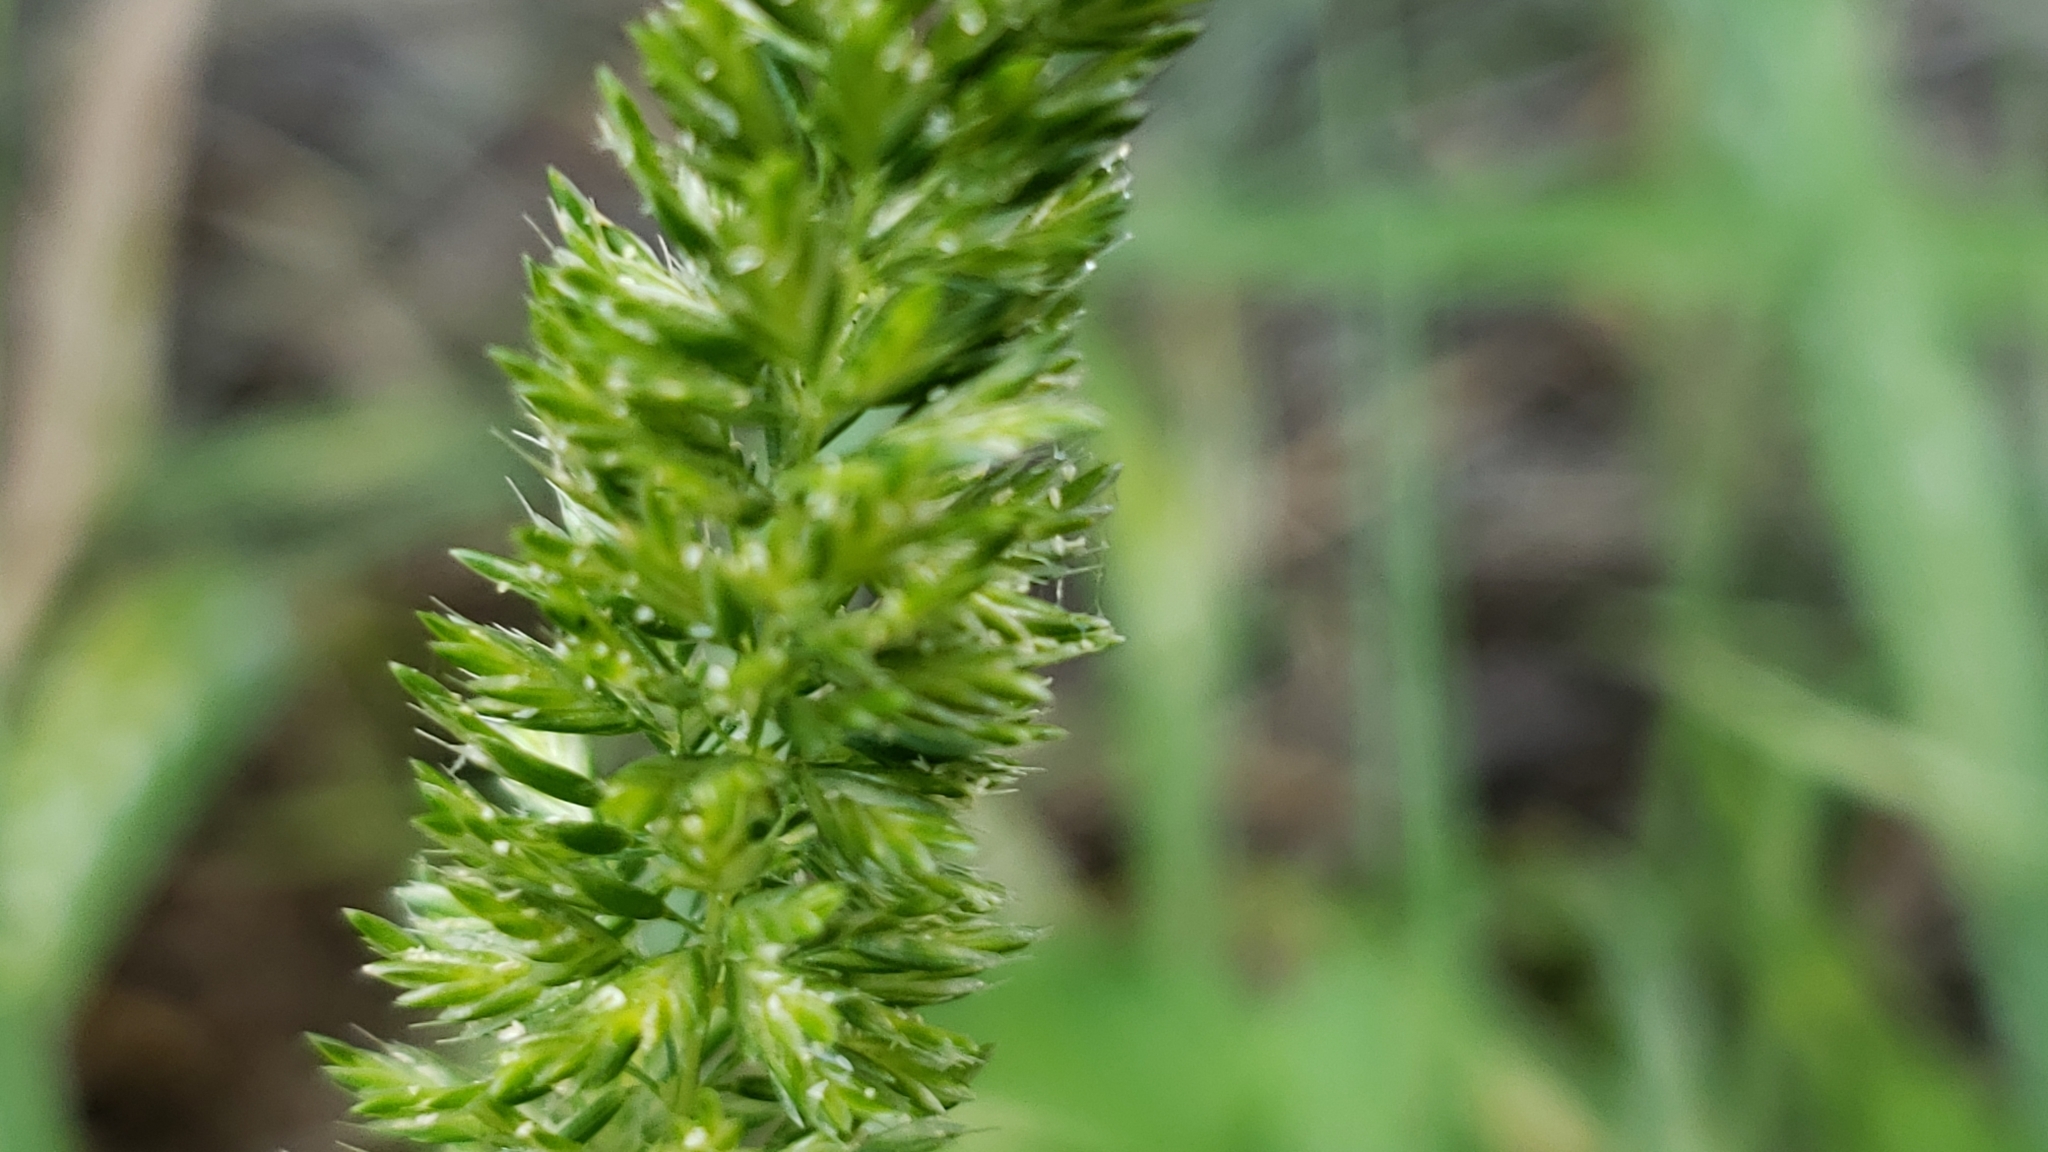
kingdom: Plantae
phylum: Tracheophyta
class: Liliopsida
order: Poales
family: Poaceae
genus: Rostraria
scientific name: Rostraria cristata
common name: Mediterranean hair-grass
